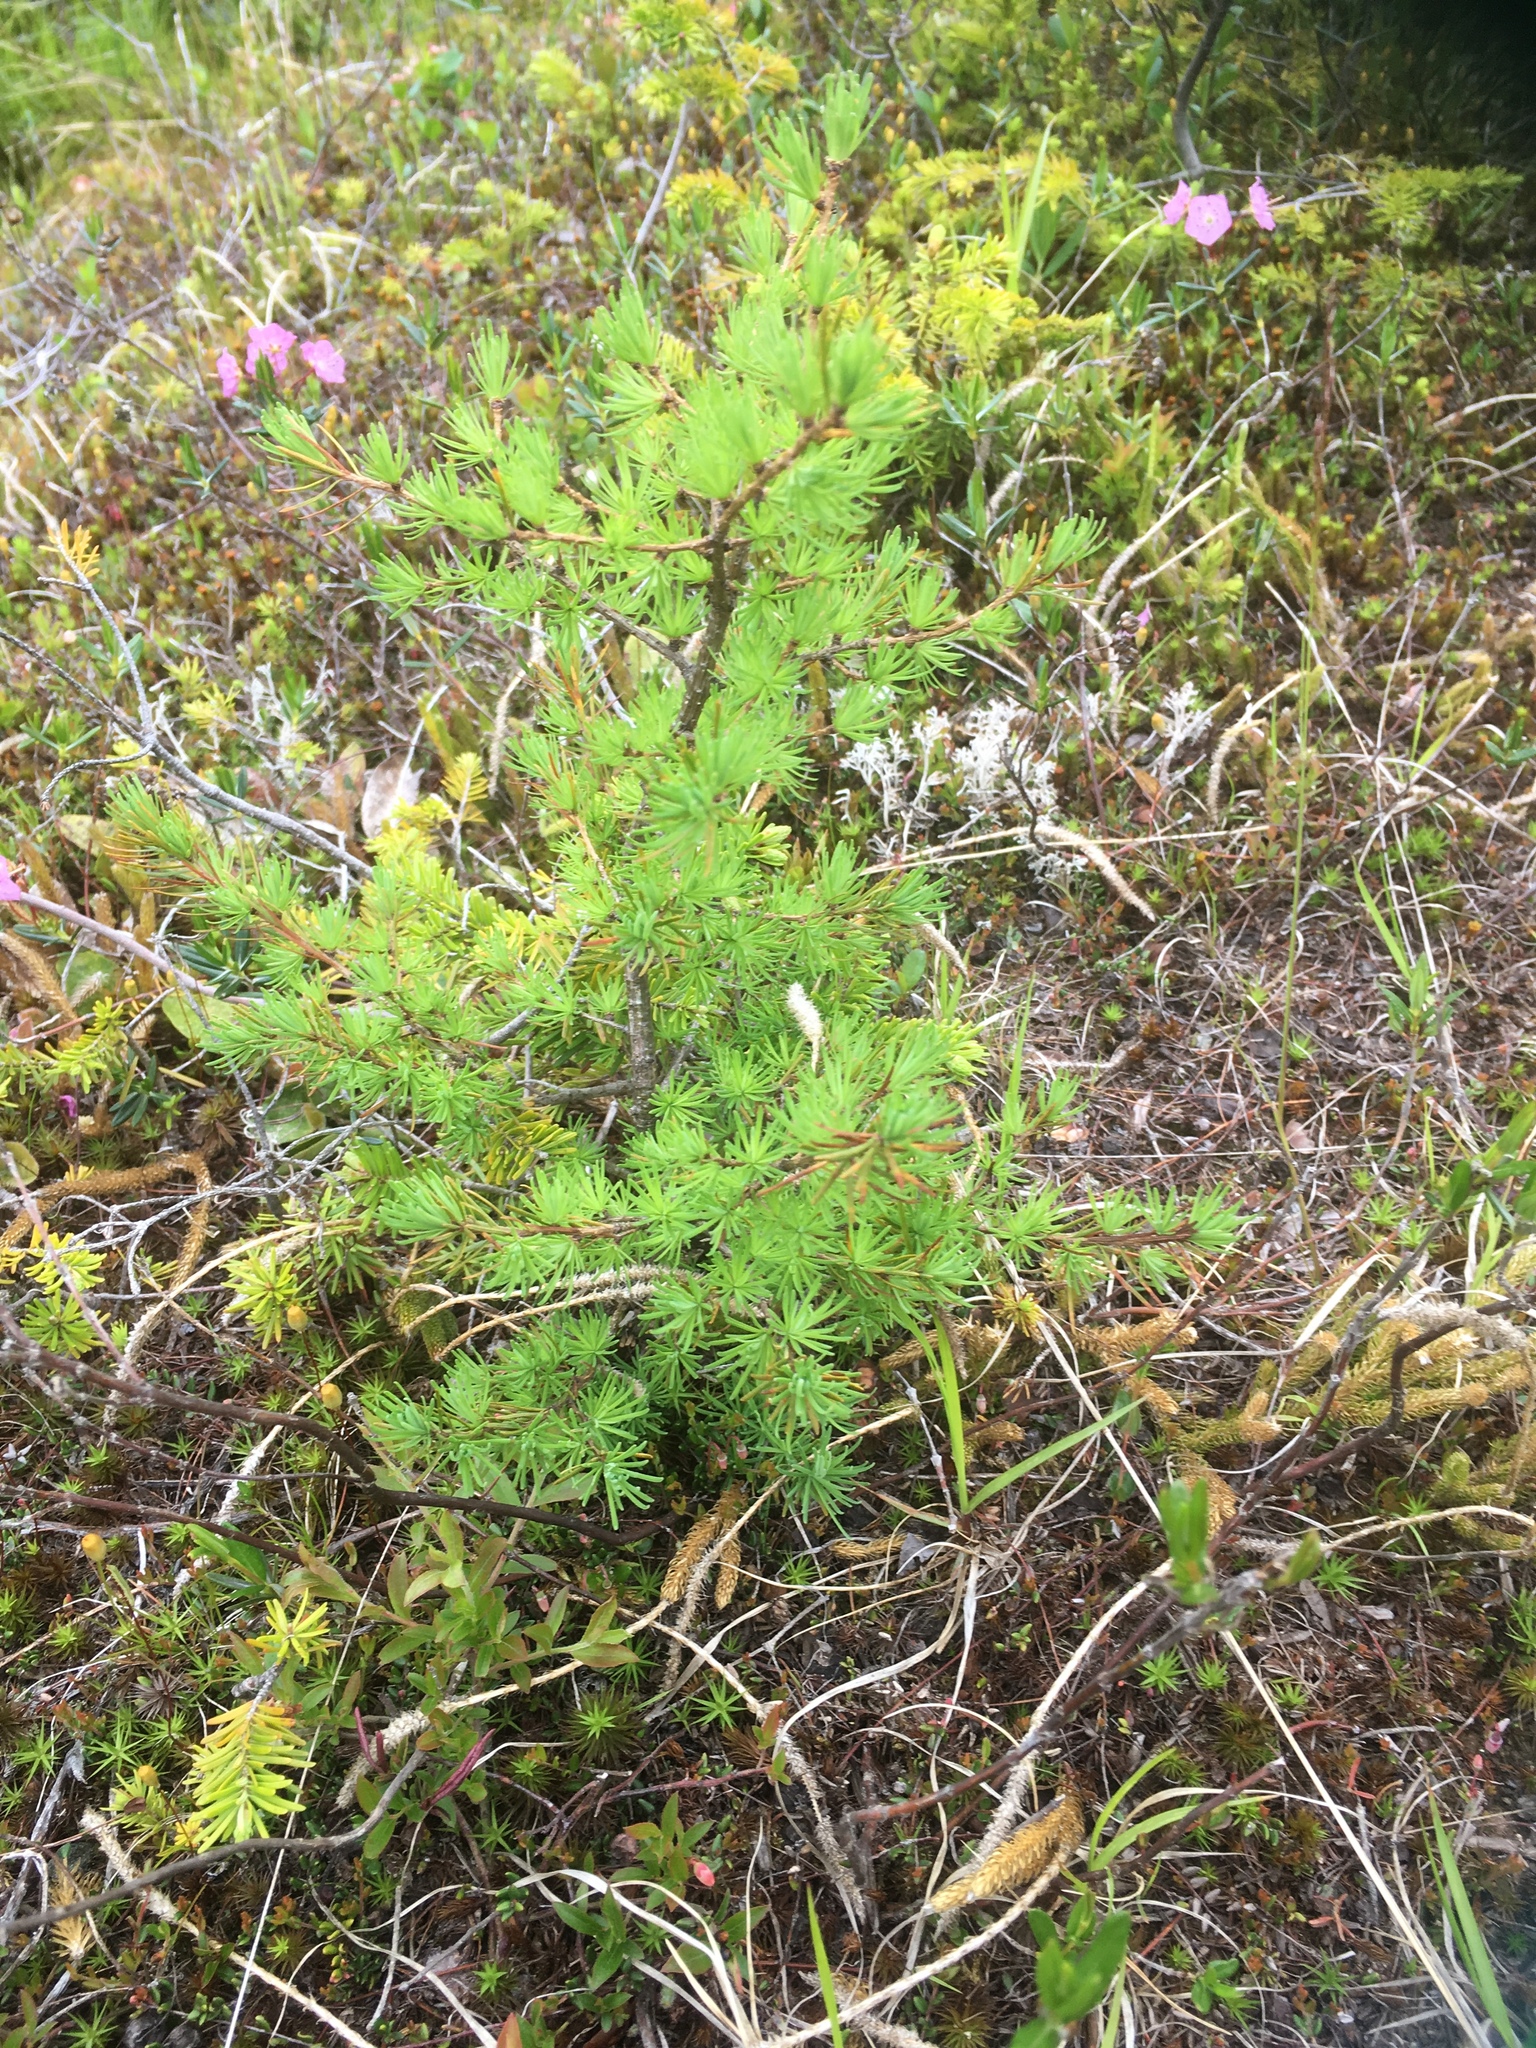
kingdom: Plantae
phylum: Tracheophyta
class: Pinopsida
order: Pinales
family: Pinaceae
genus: Larix
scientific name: Larix laricina
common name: American larch
